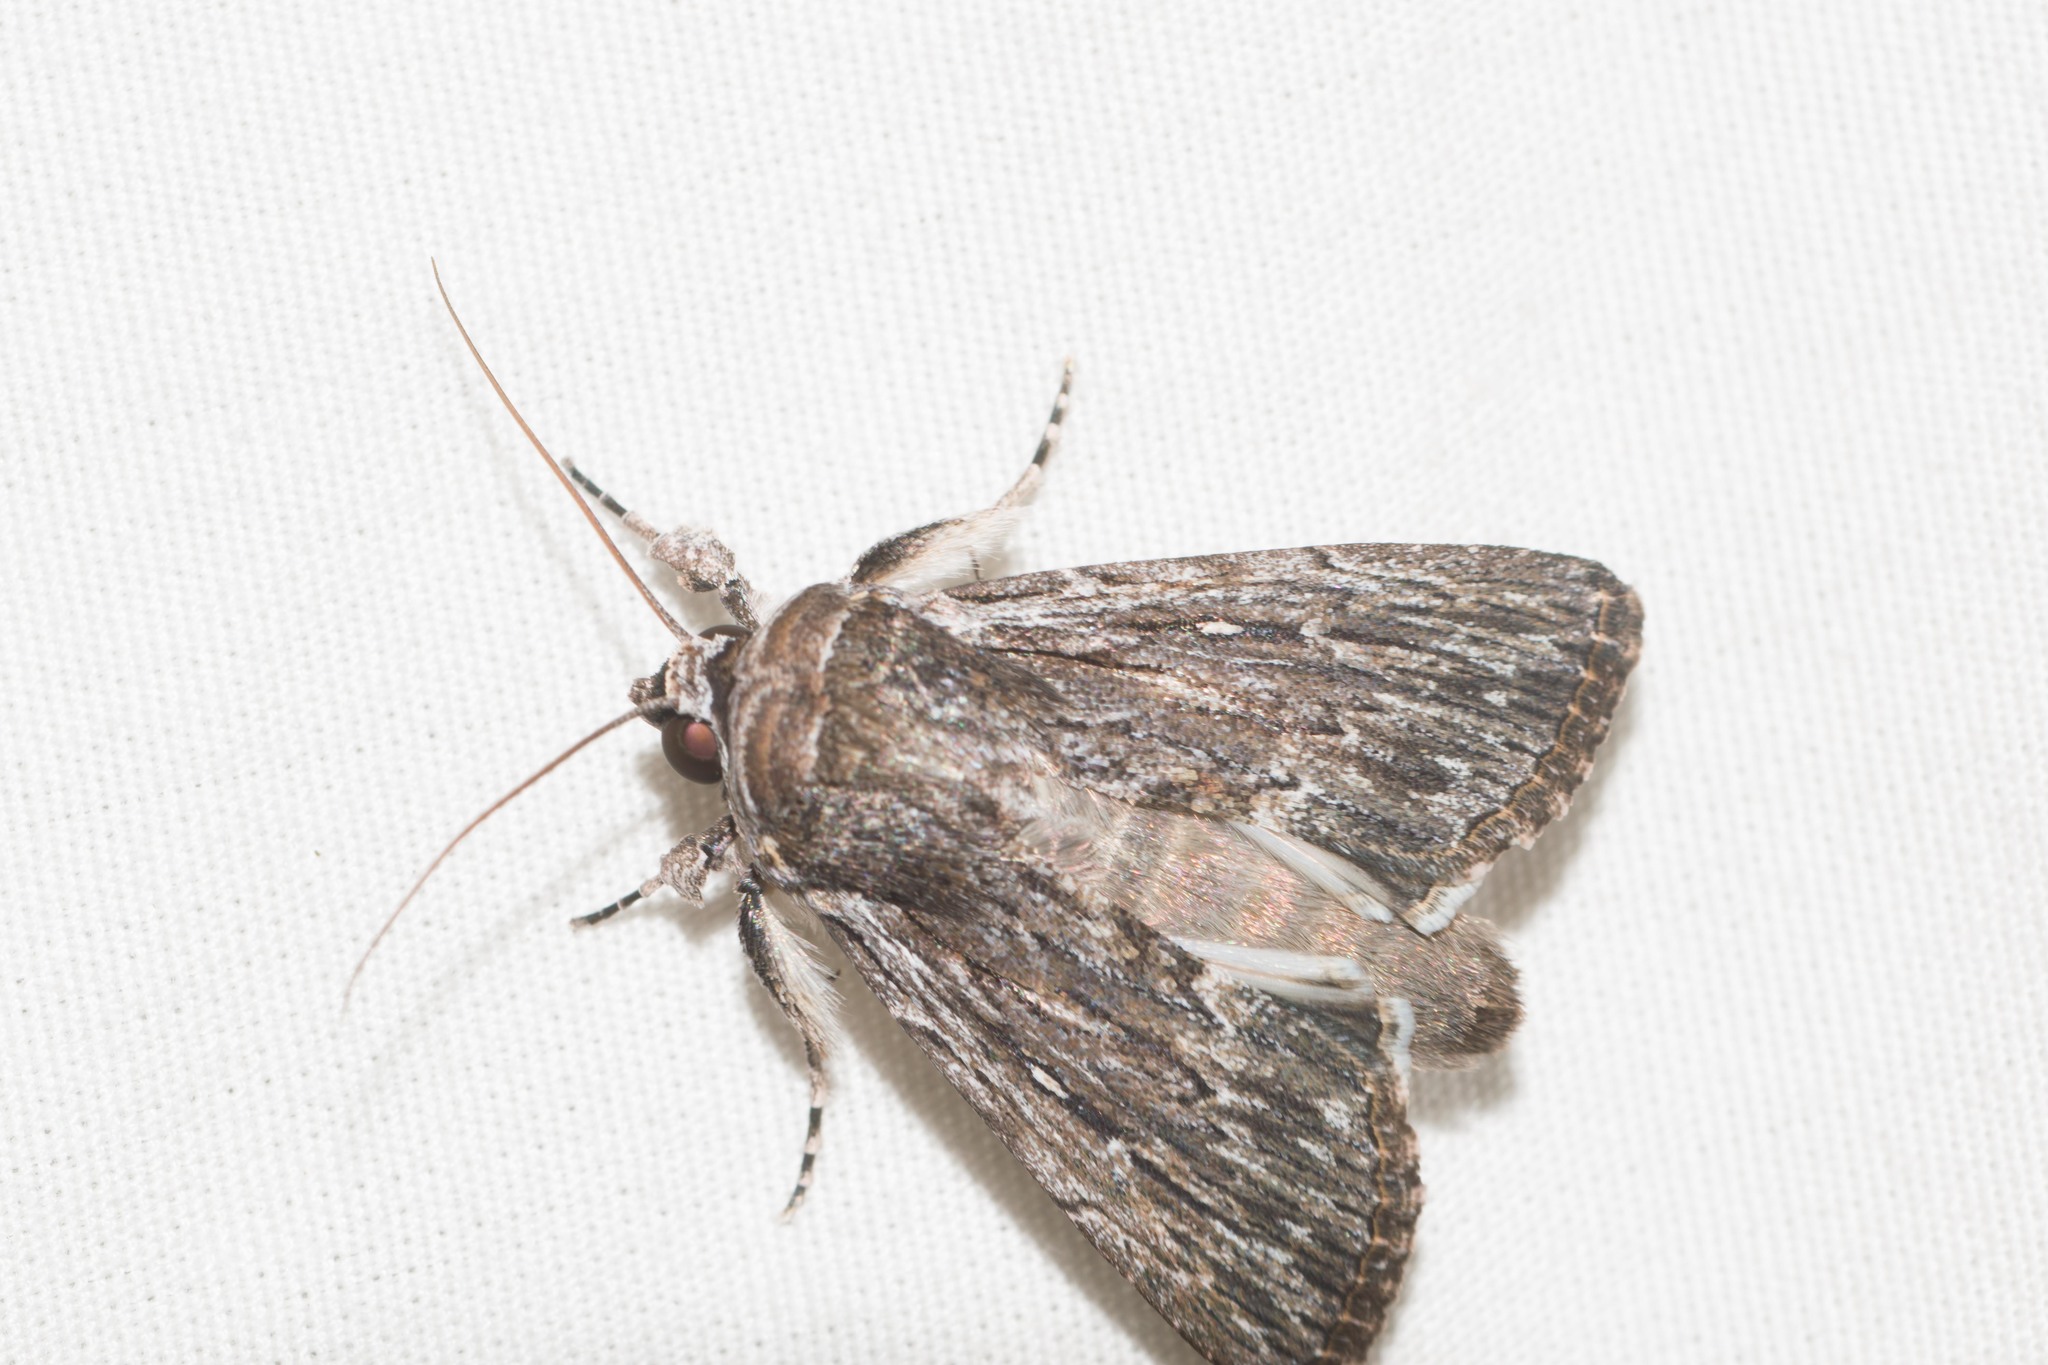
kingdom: Animalia
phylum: Arthropoda
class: Insecta
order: Lepidoptera
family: Noctuidae
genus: Neogalea
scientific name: Neogalea sunia
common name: Lantana stick caterpillar
